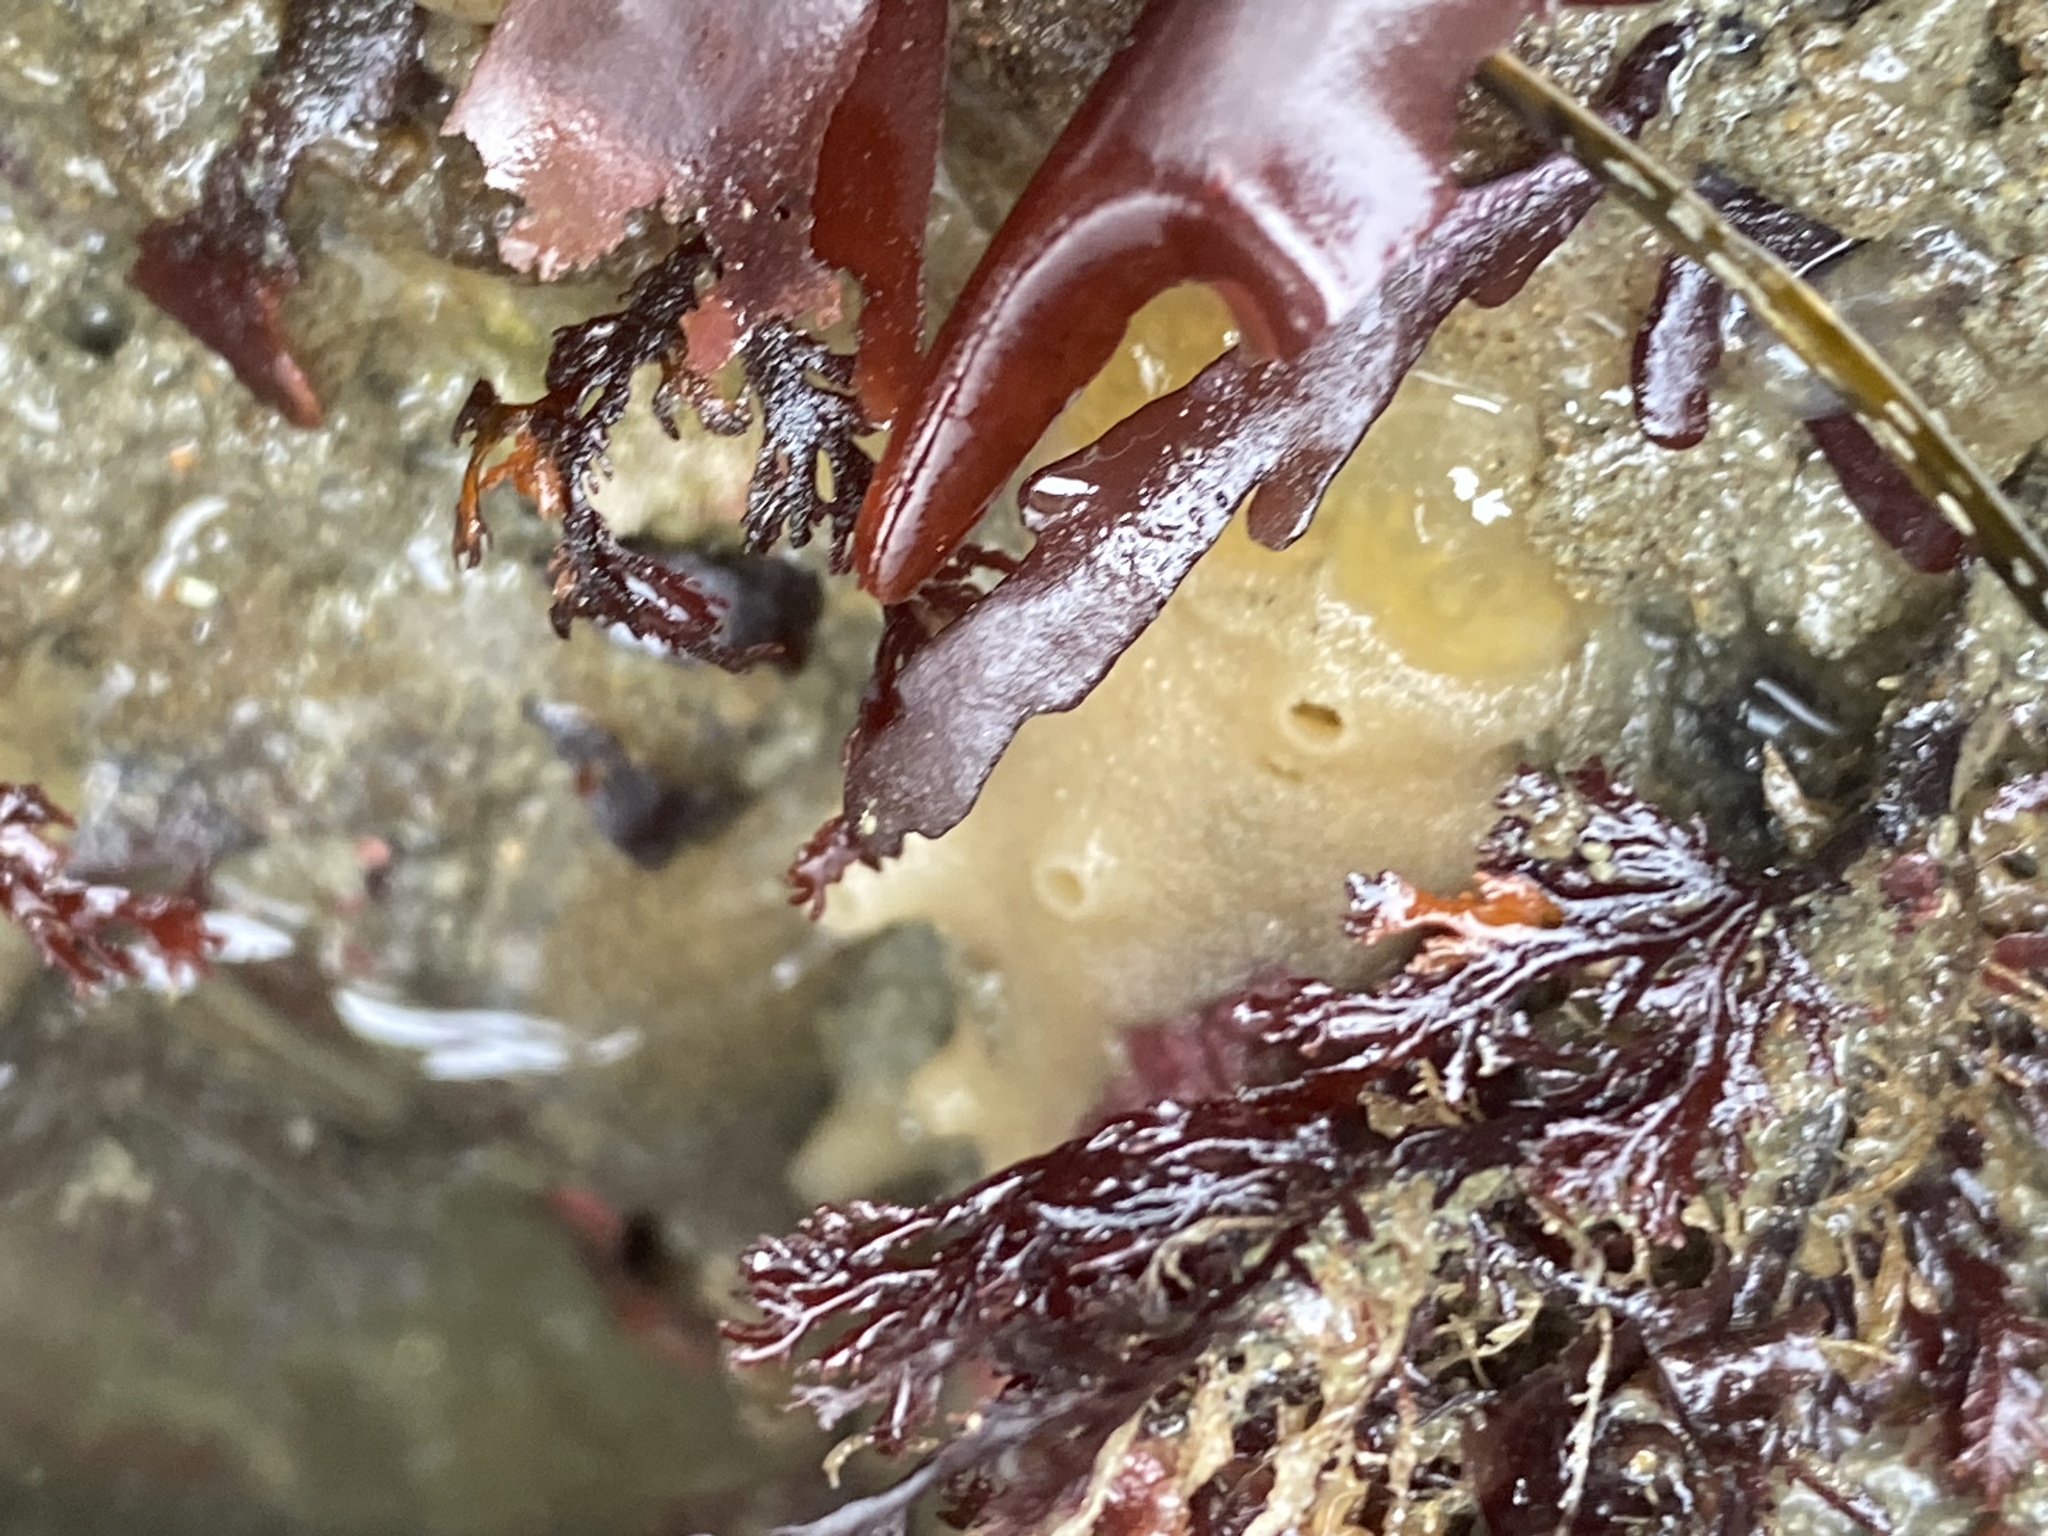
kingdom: Animalia
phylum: Porifera
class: Demospongiae
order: Suberitida
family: Halichondriidae
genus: Halichondria
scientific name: Halichondria panicea
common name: Breadcrumb sponge
